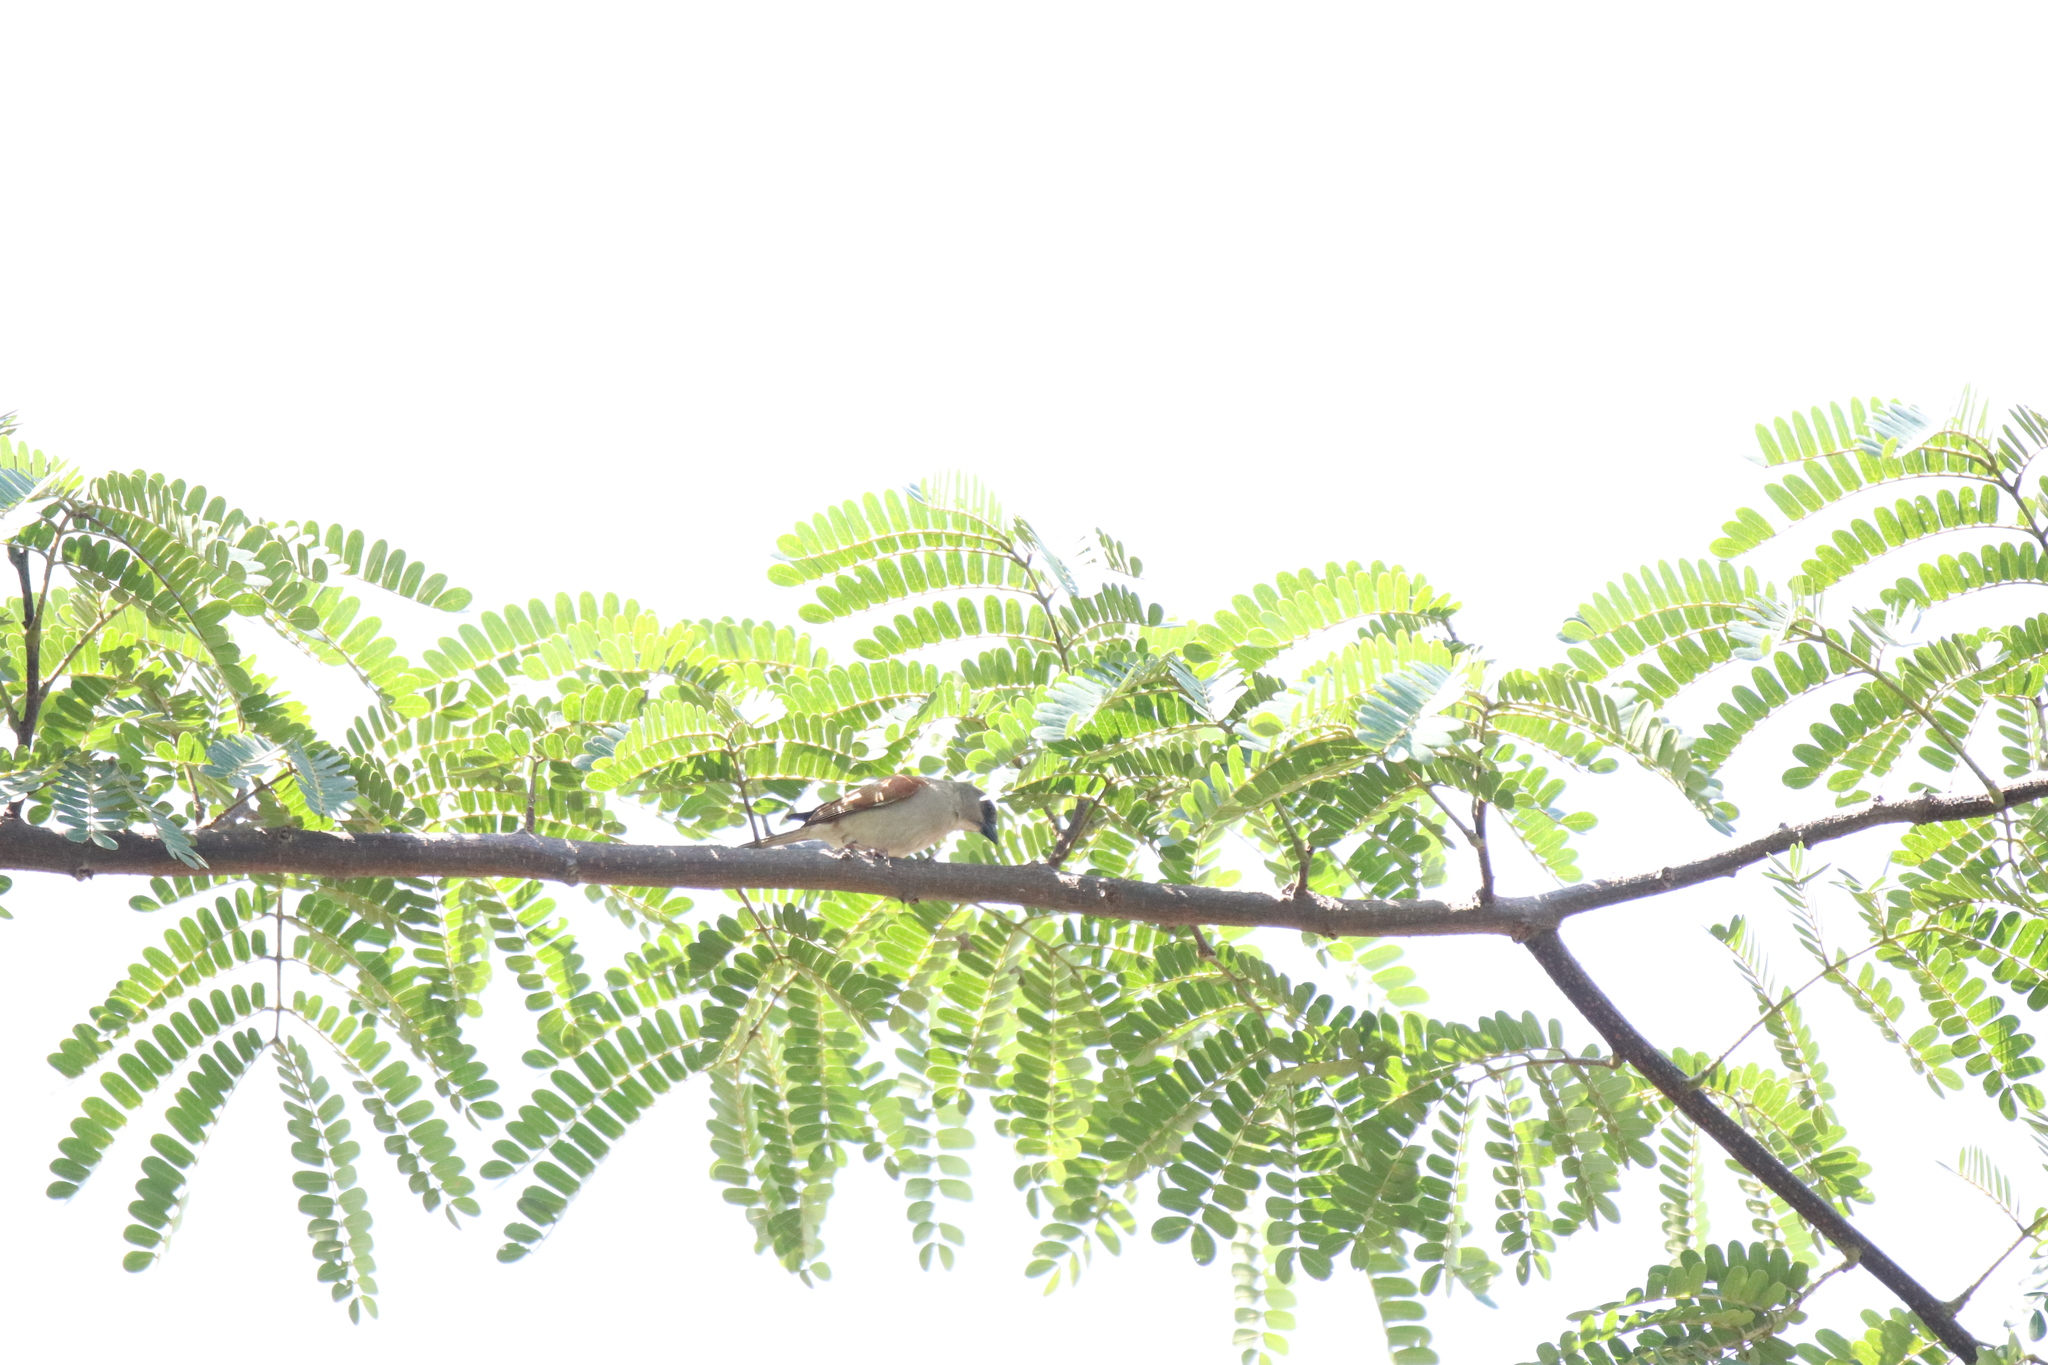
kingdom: Animalia
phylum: Chordata
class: Aves
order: Passeriformes
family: Passeridae
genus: Passer
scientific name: Passer griseus
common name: Northern grey-headed sparrow
